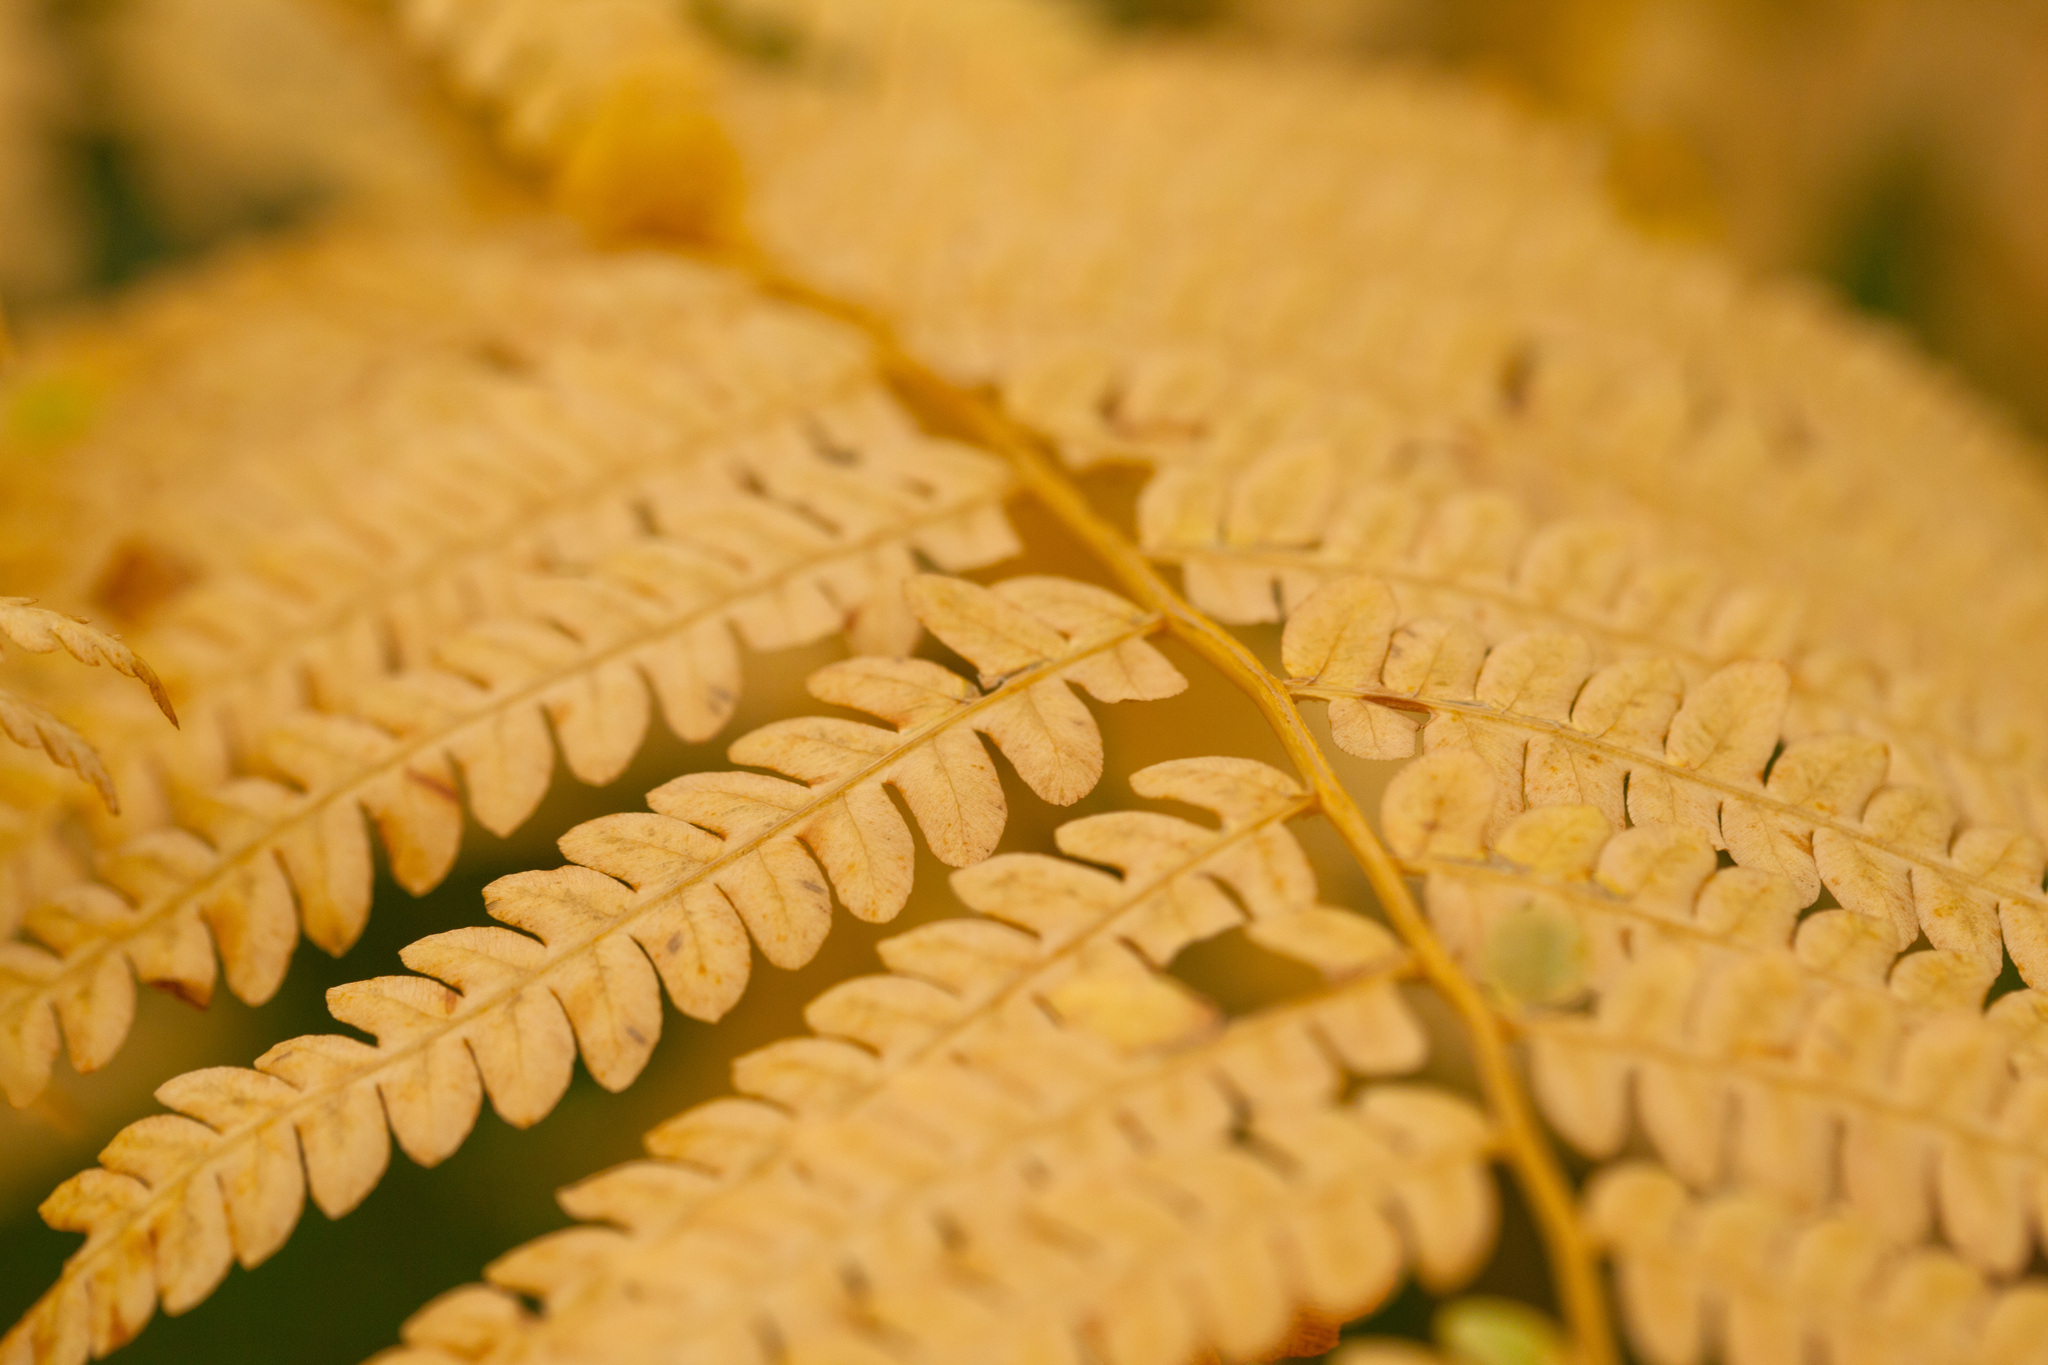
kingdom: Plantae
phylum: Tracheophyta
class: Polypodiopsida
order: Osmundales
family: Osmundaceae
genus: Osmundastrum
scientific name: Osmundastrum cinnamomeum
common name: Cinnamon fern
